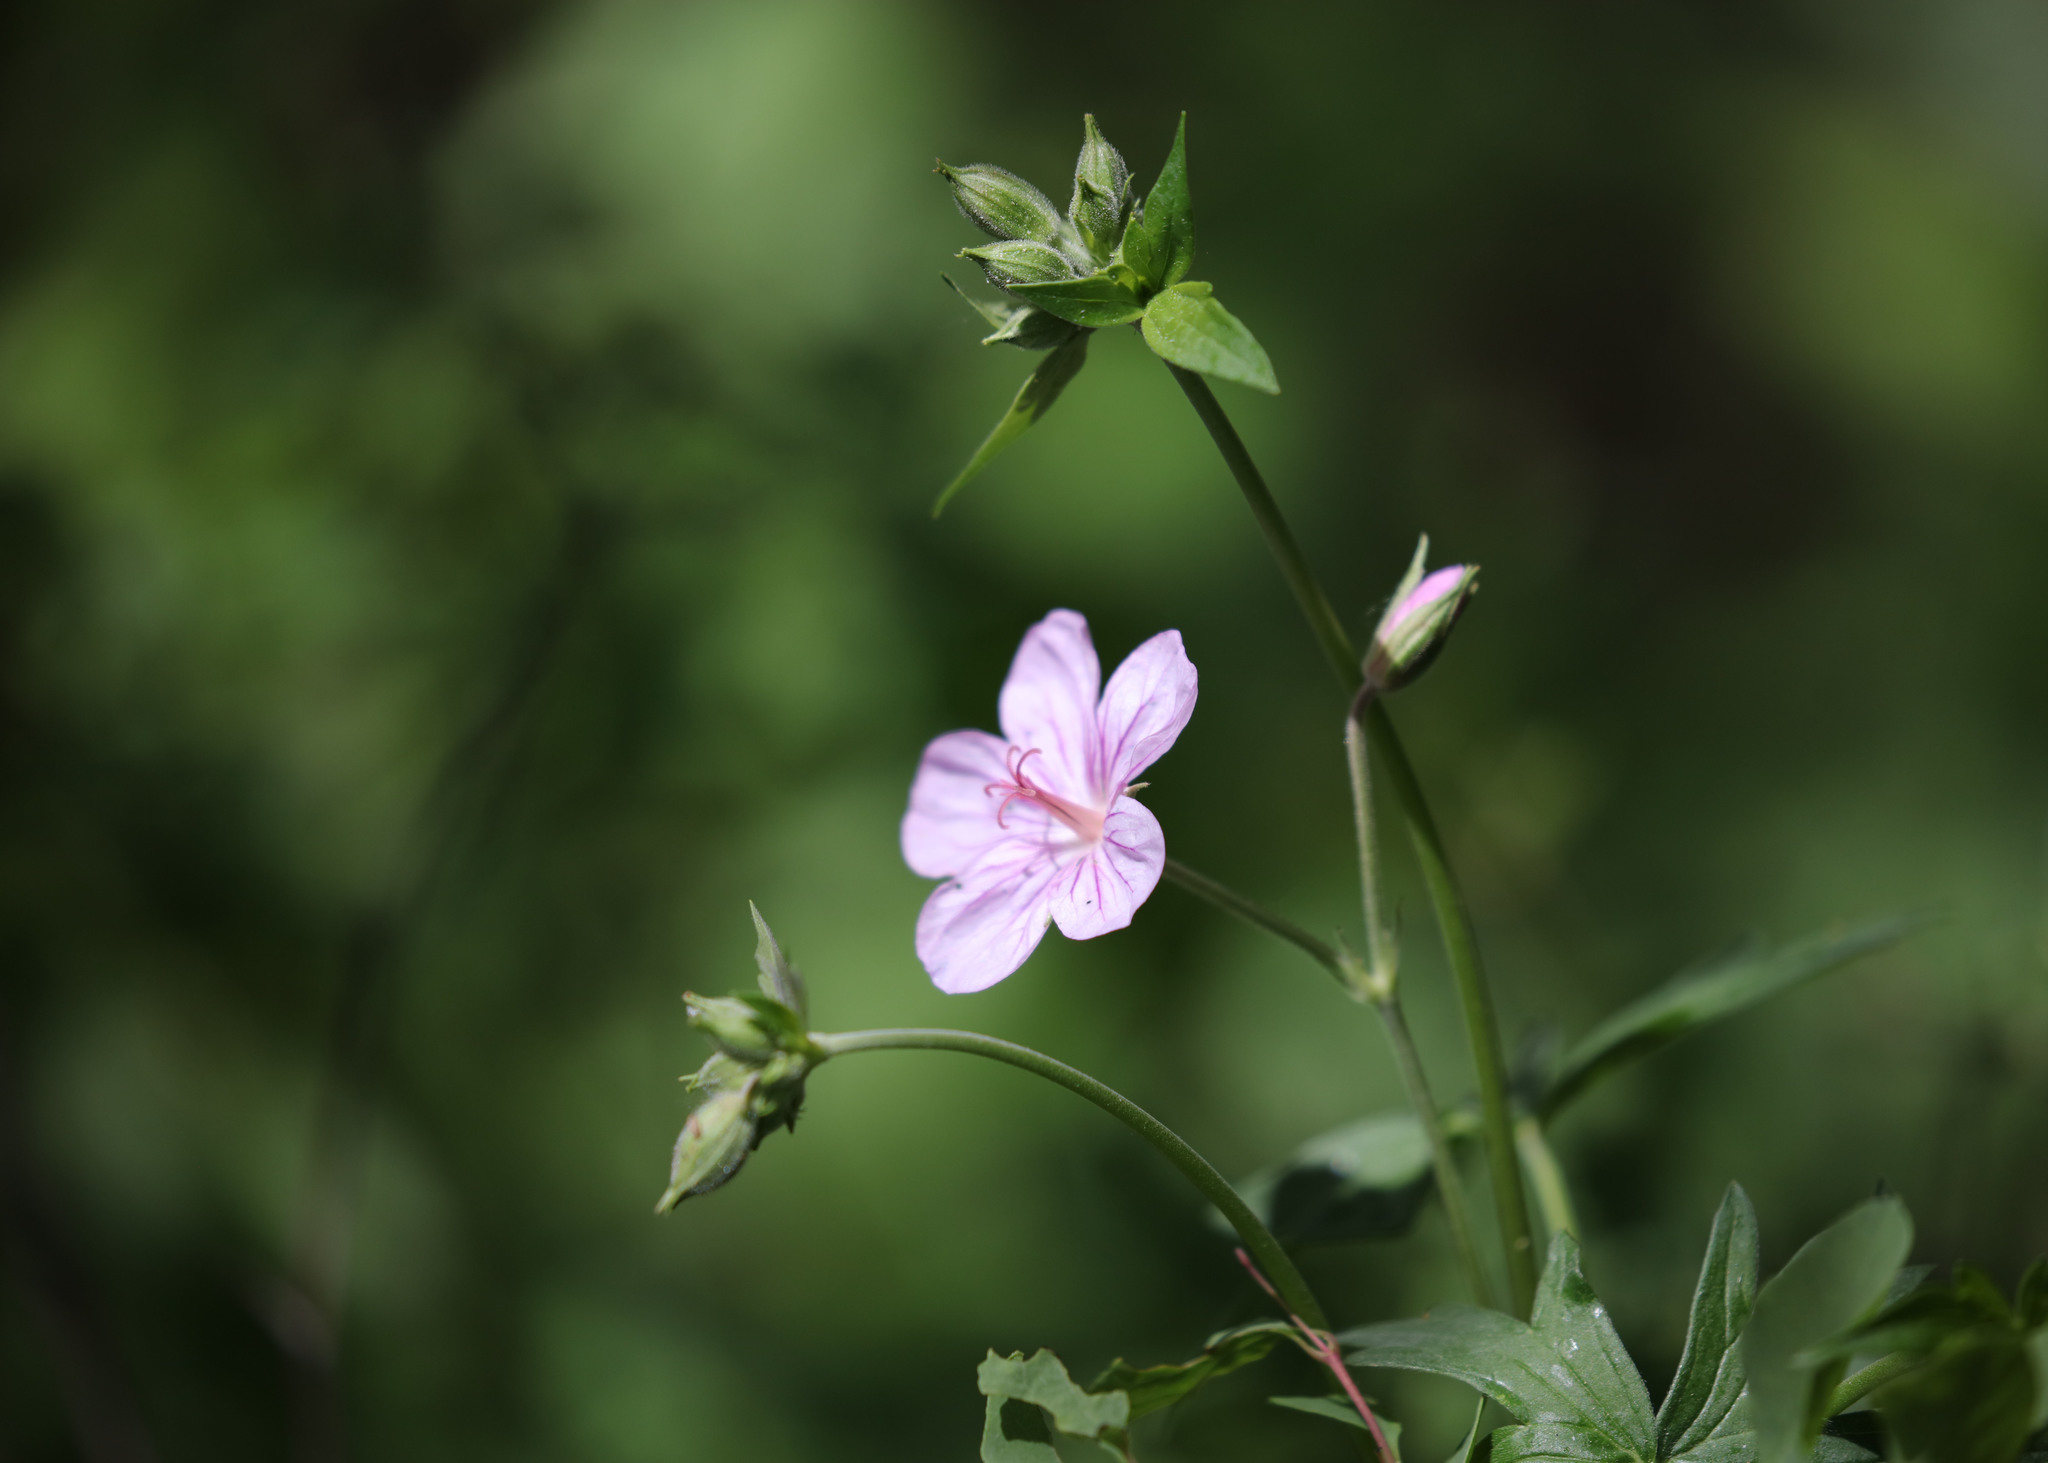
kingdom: Plantae
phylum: Tracheophyta
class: Magnoliopsida
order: Geraniales
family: Geraniaceae
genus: Geranium
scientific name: Geranium richardsonii
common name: Richardson's crane's-bill
